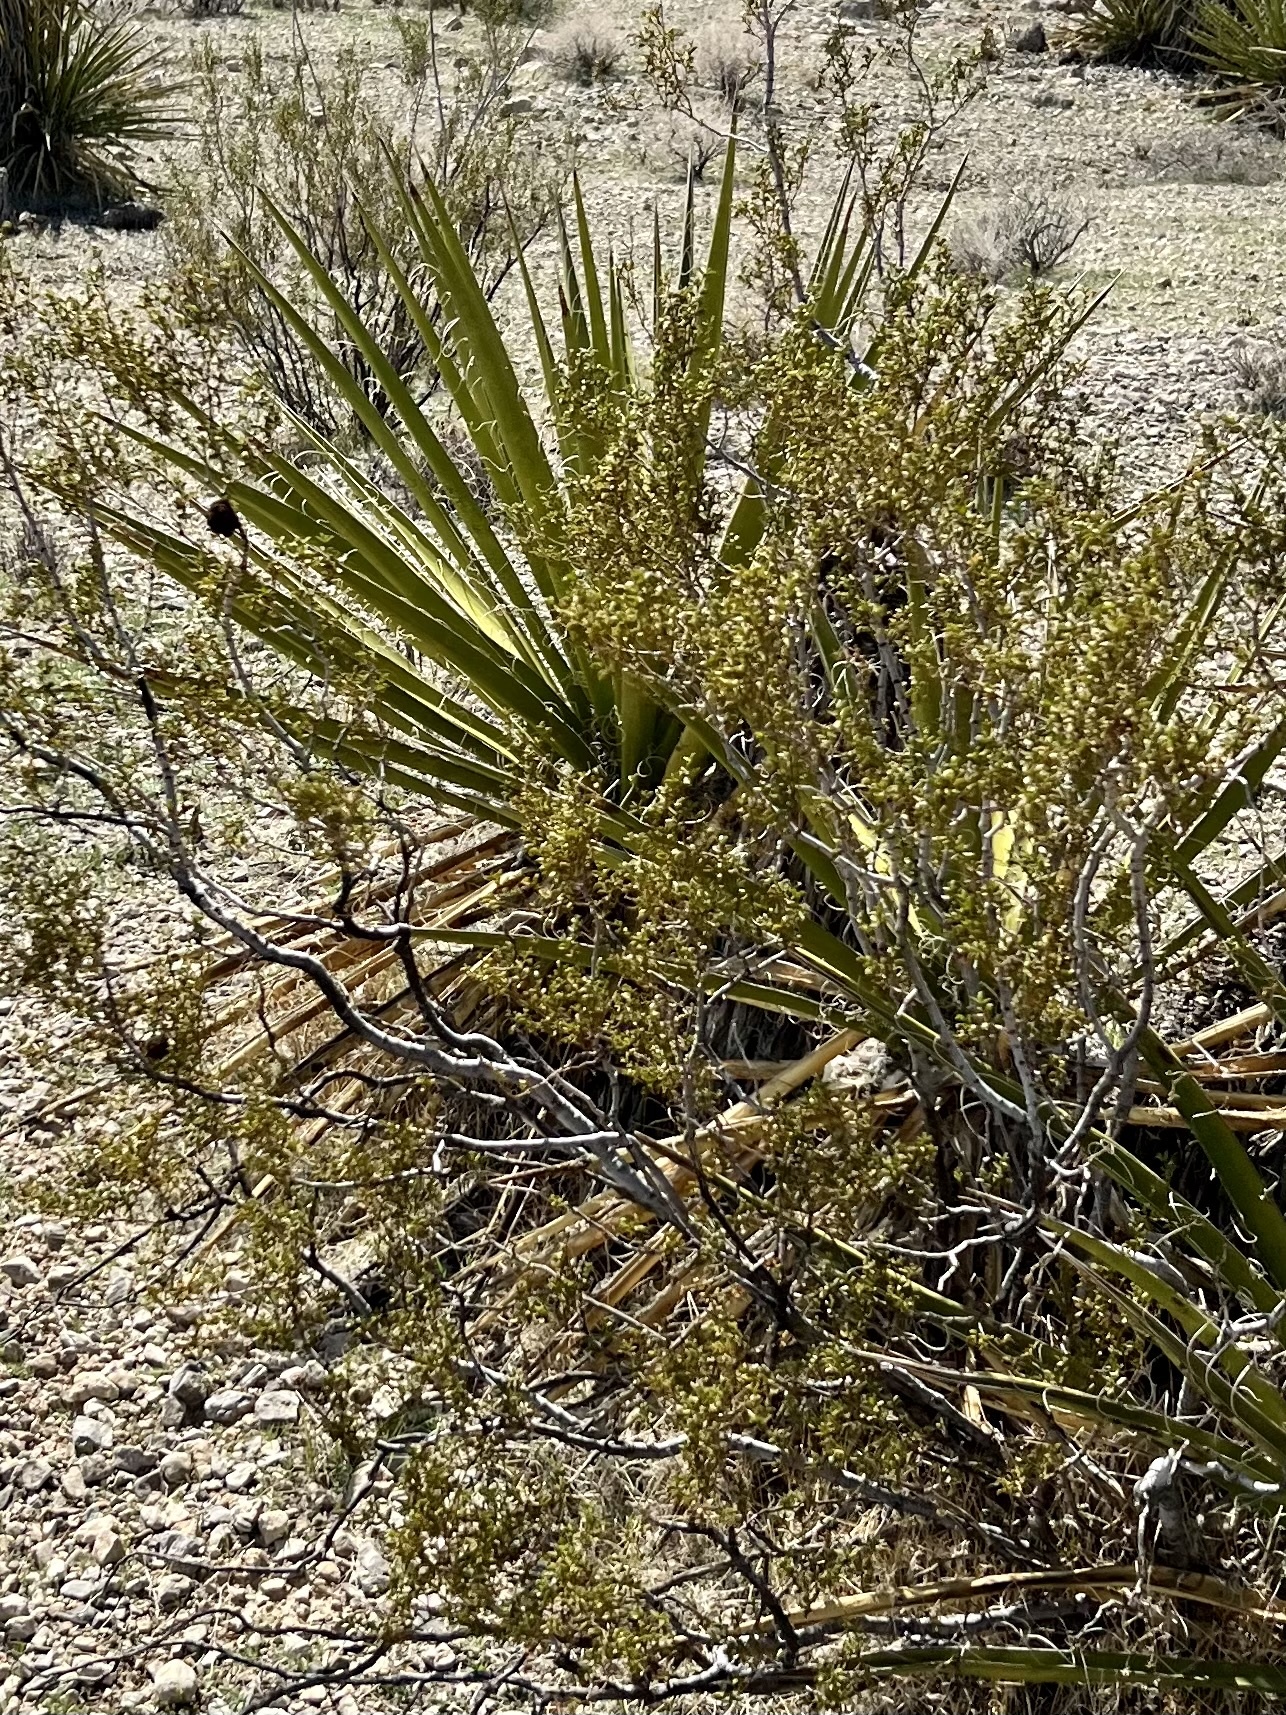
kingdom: Plantae
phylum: Tracheophyta
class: Magnoliopsida
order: Zygophyllales
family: Zygophyllaceae
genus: Larrea
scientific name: Larrea tridentata
